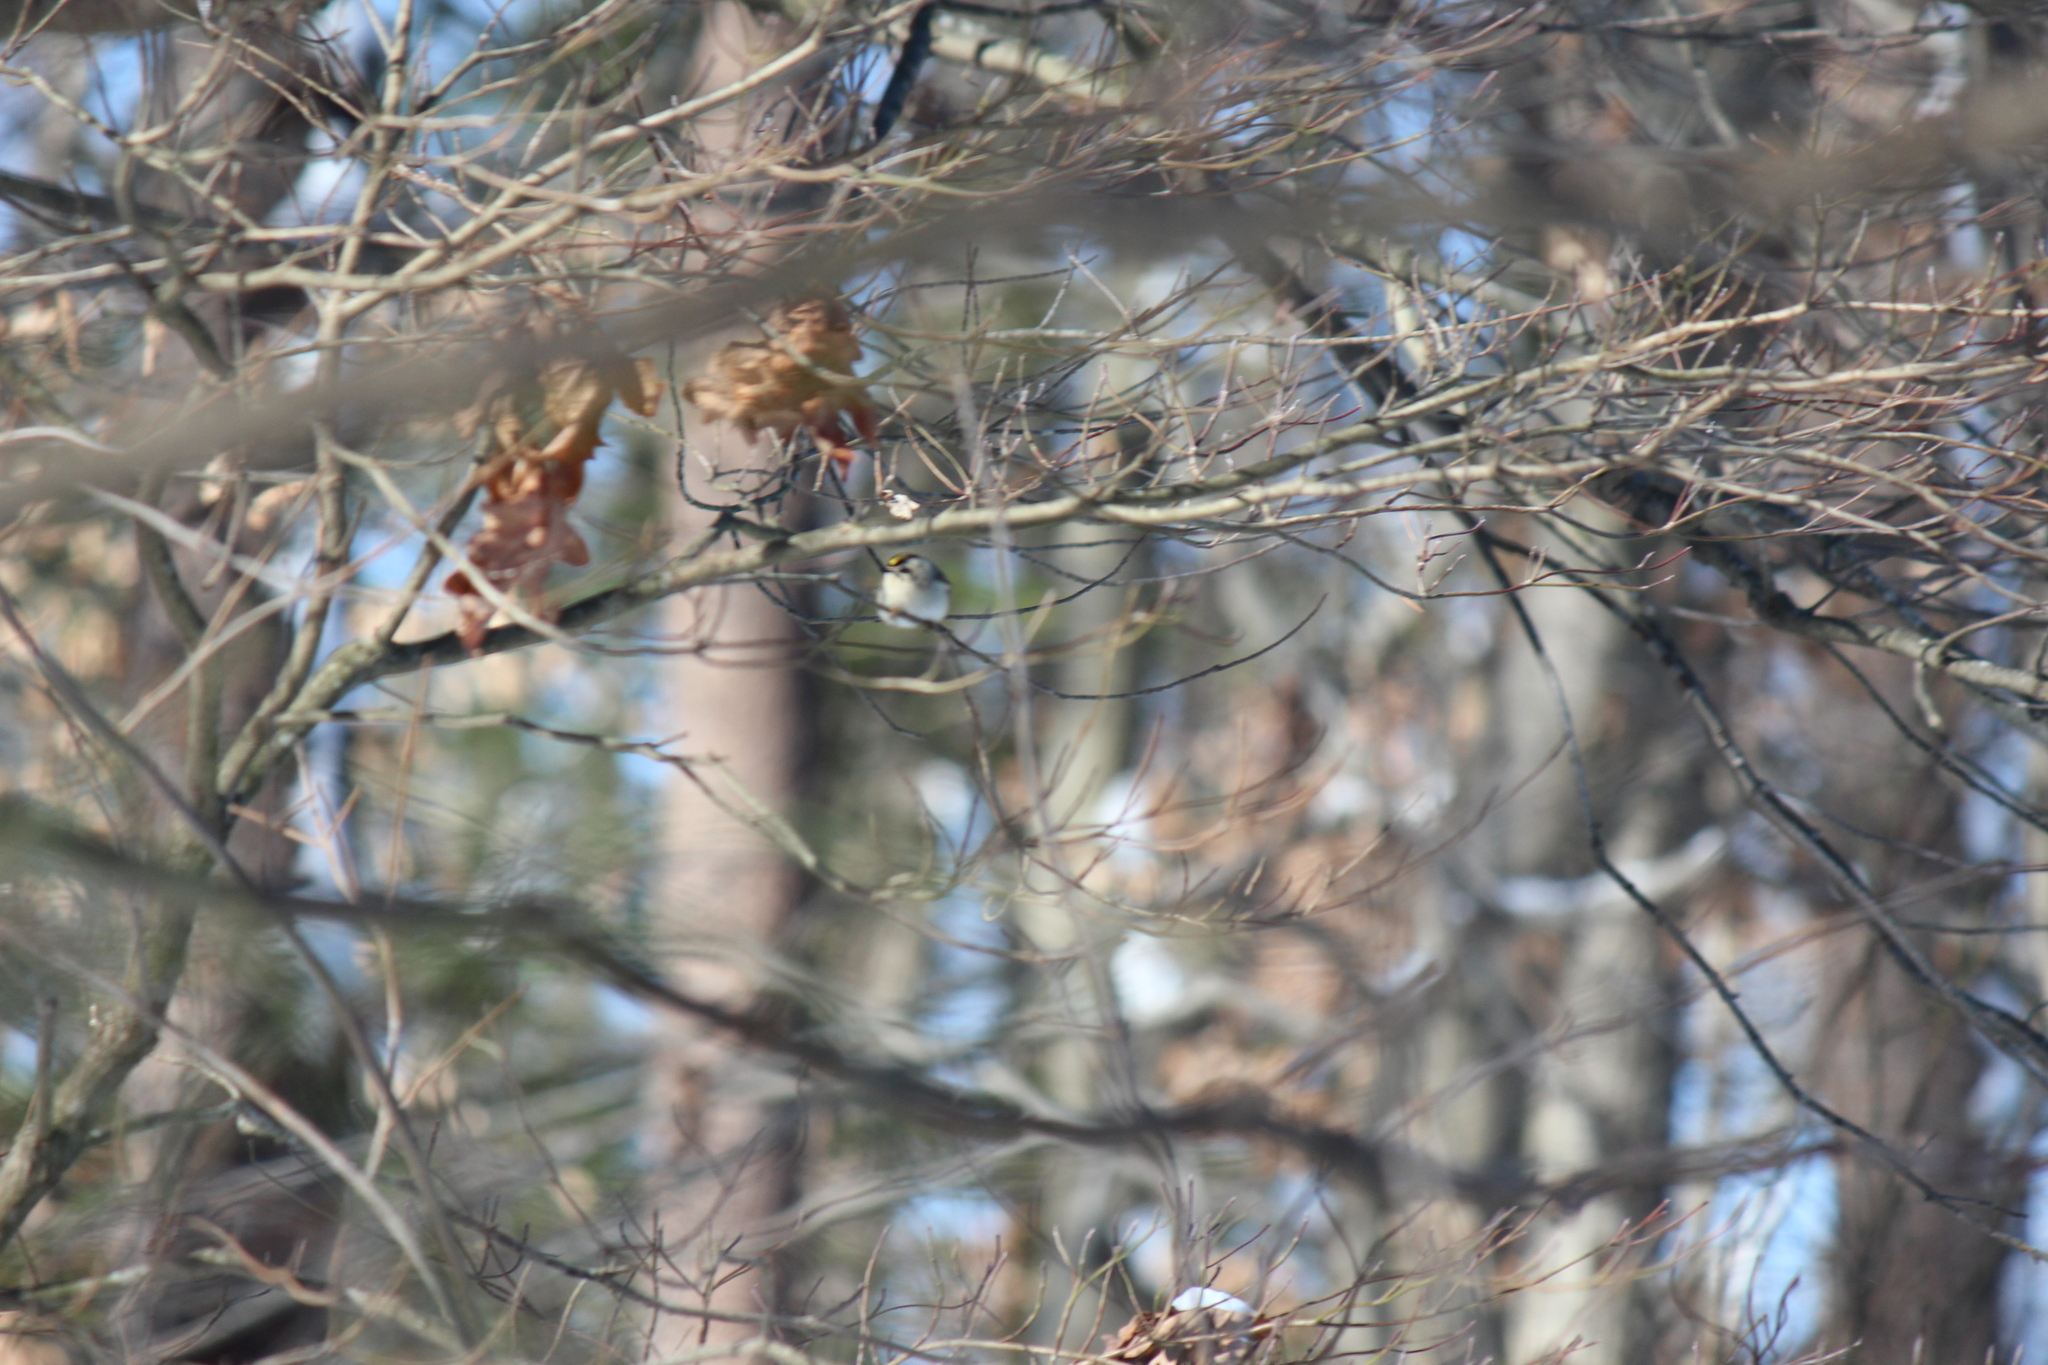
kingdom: Animalia
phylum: Chordata
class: Aves
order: Passeriformes
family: Regulidae
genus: Regulus
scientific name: Regulus satrapa
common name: Golden-crowned kinglet
